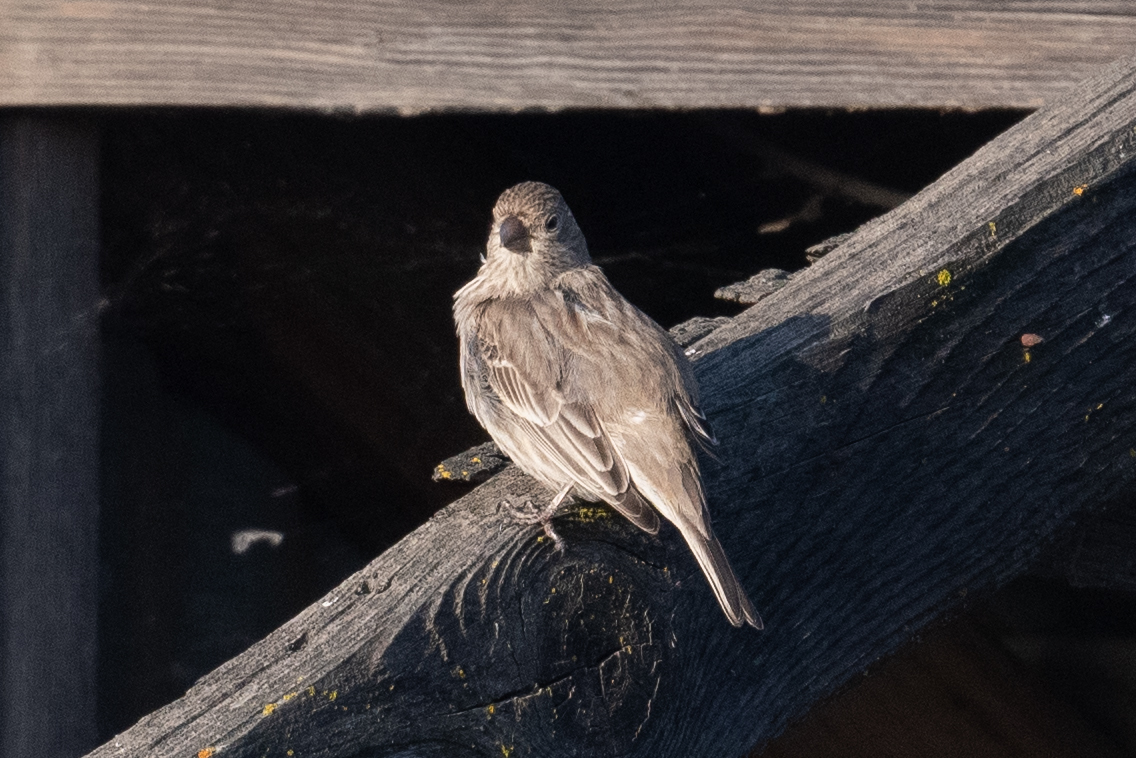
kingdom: Animalia
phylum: Chordata
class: Aves
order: Passeriformes
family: Fringillidae
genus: Haemorhous
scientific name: Haemorhous mexicanus
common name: House finch
